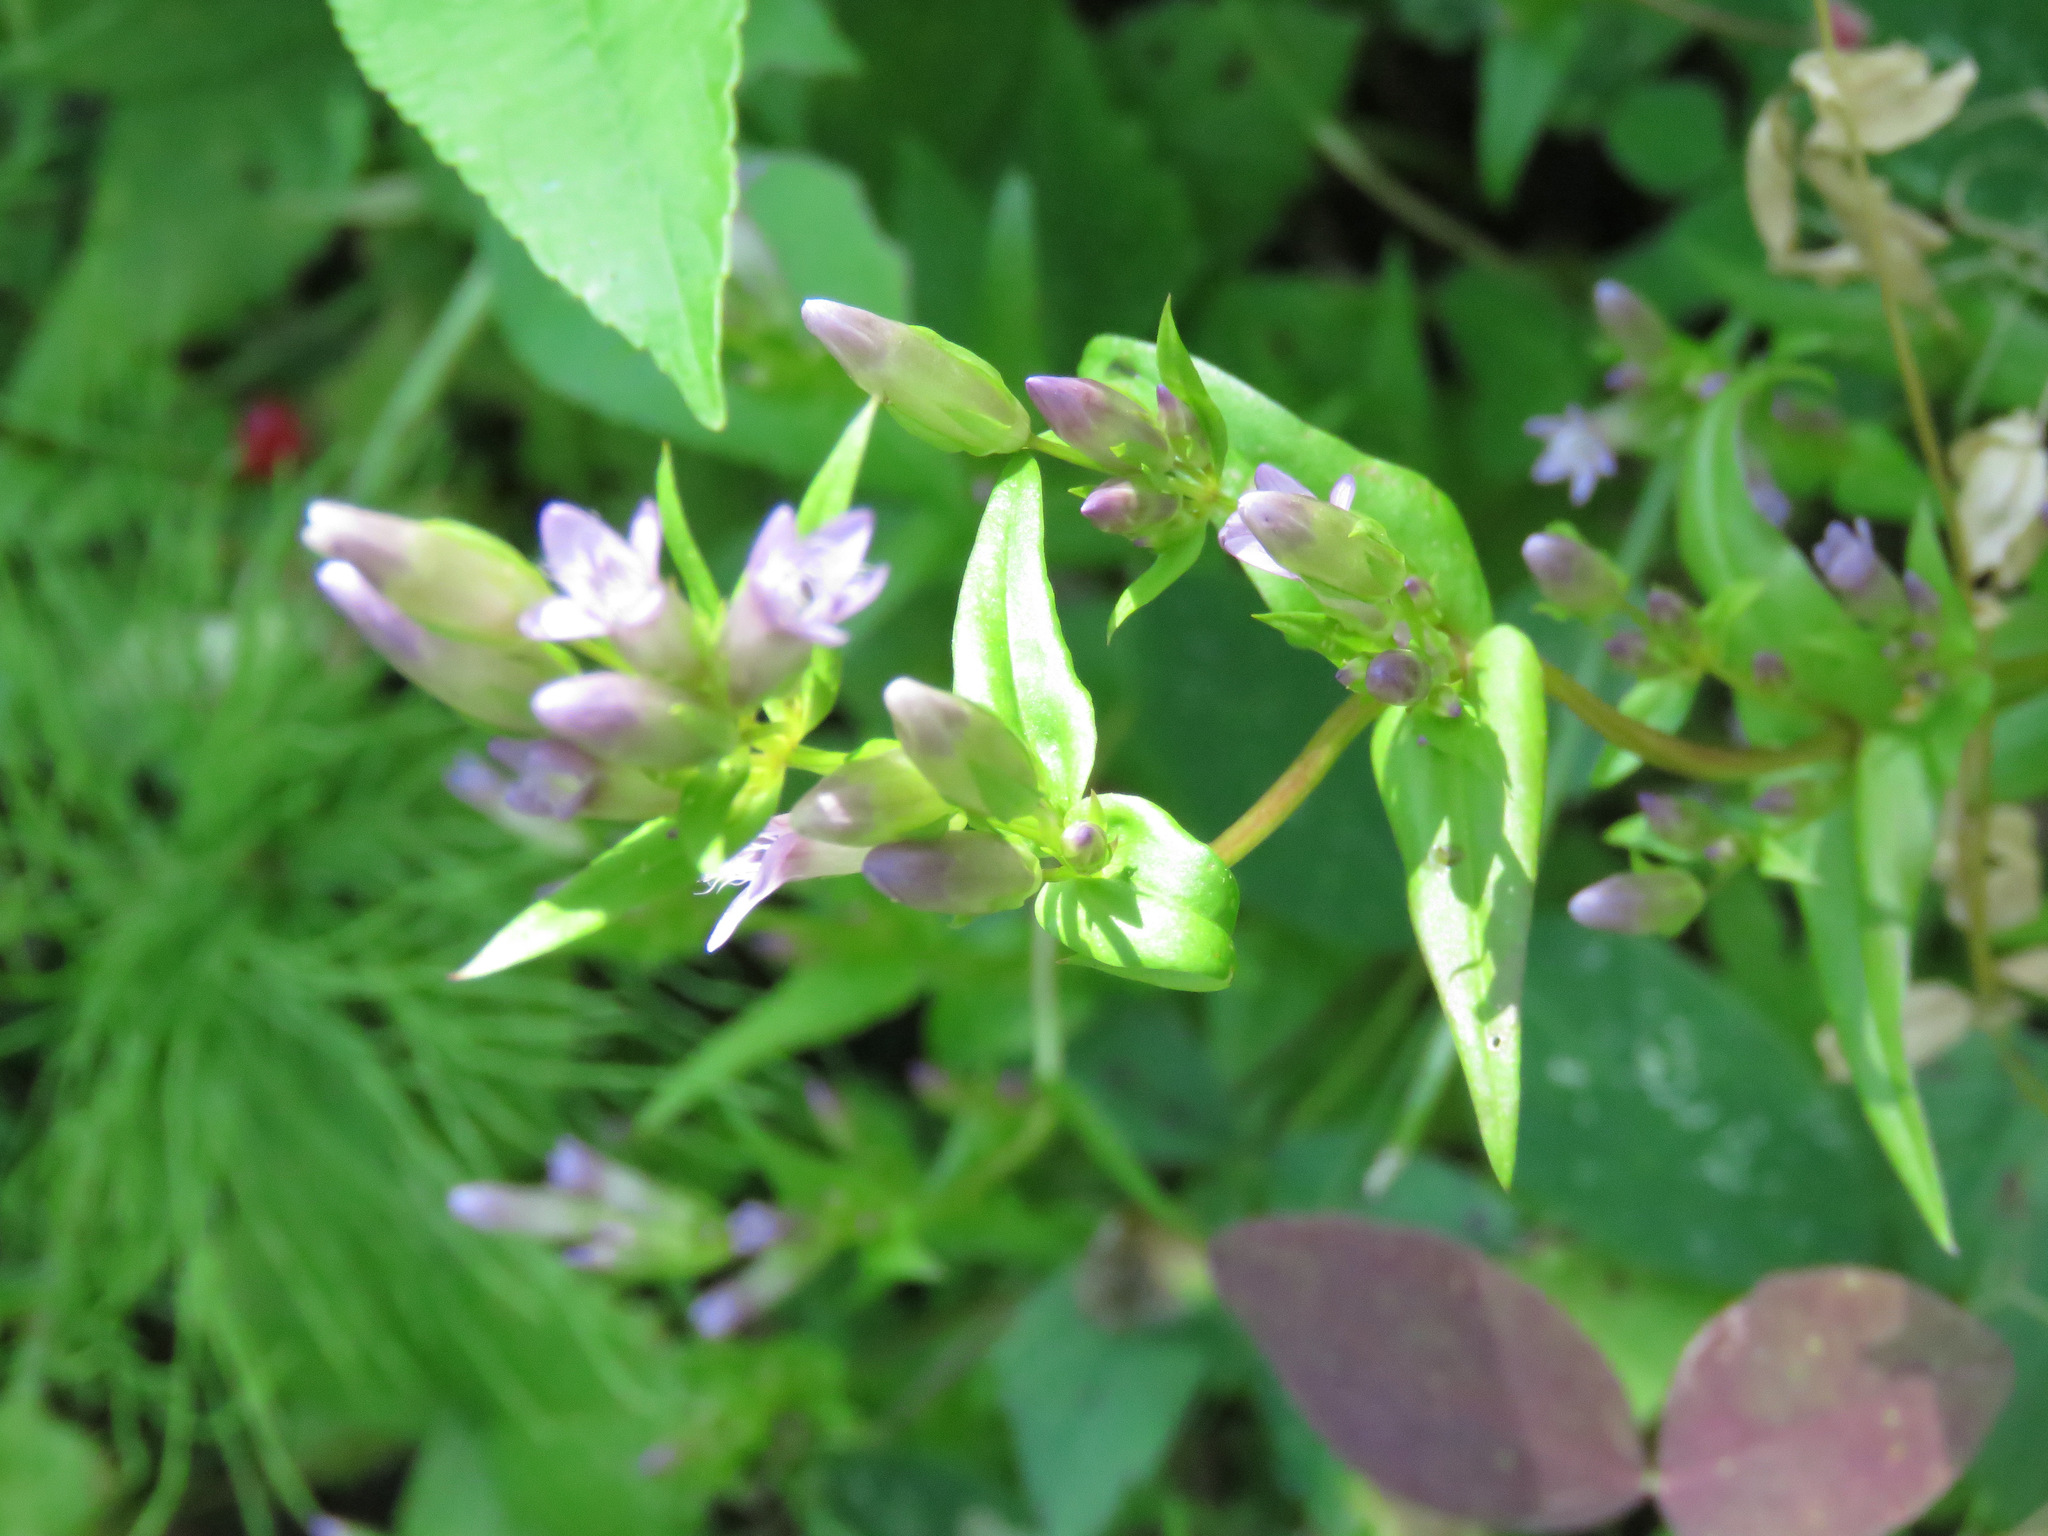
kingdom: Plantae
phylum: Tracheophyta
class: Magnoliopsida
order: Gentianales
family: Gentianaceae
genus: Gentianella
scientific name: Gentianella amarella
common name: Autumn gentian
